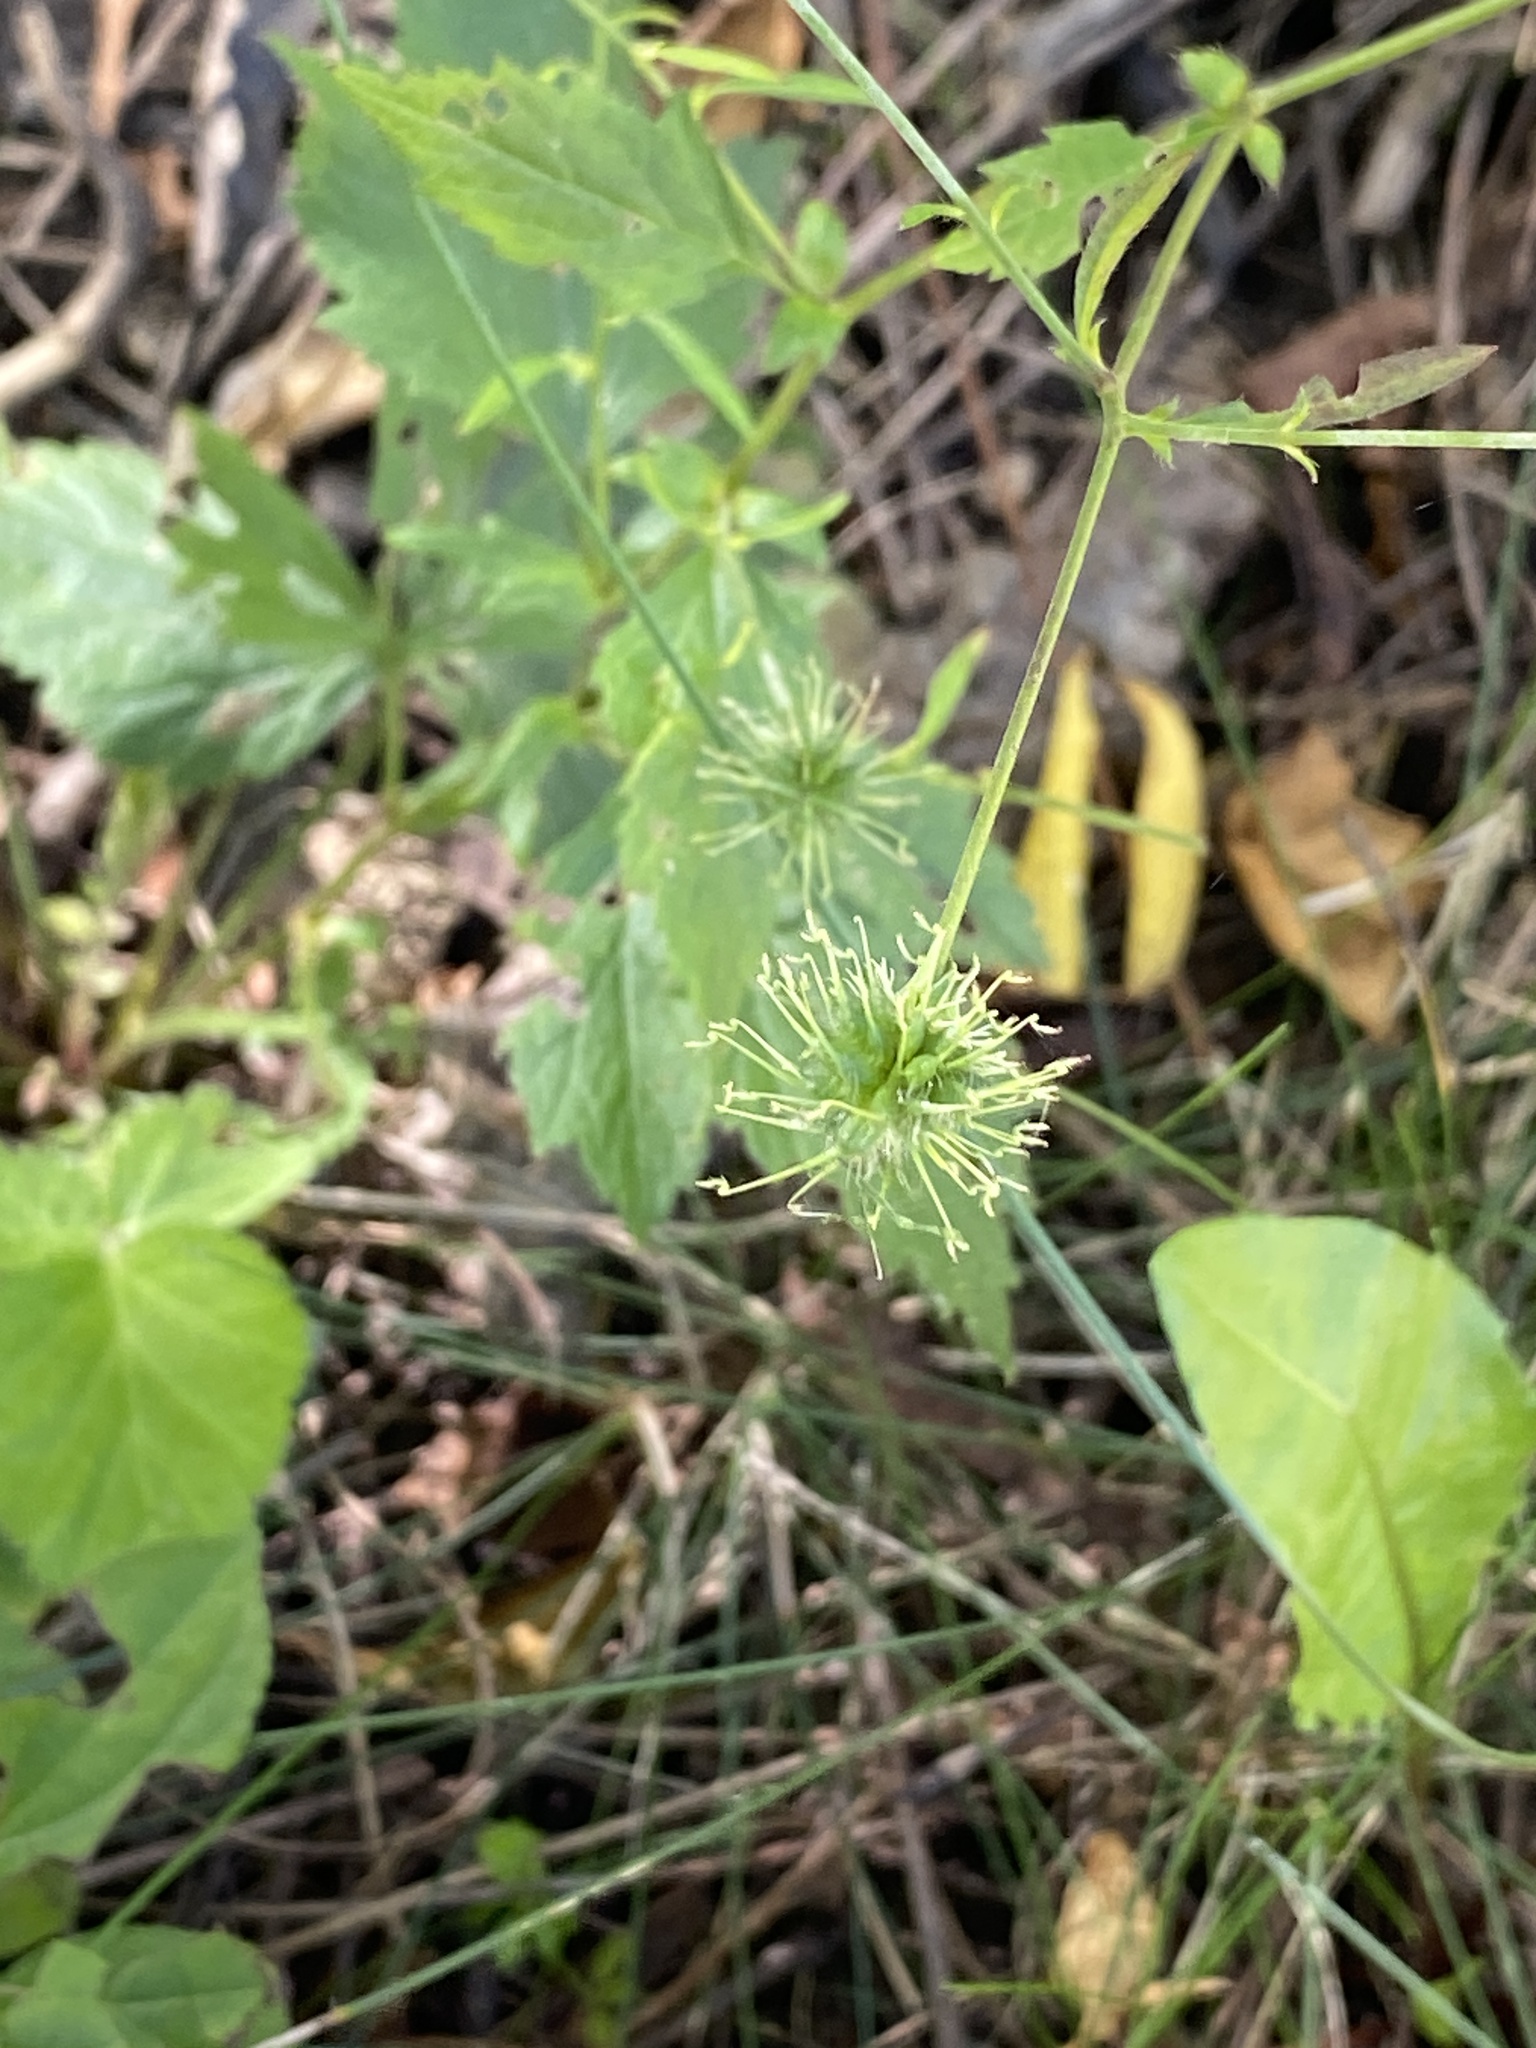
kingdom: Plantae
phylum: Tracheophyta
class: Magnoliopsida
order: Rosales
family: Rosaceae
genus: Geum
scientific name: Geum canadense
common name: White avens
